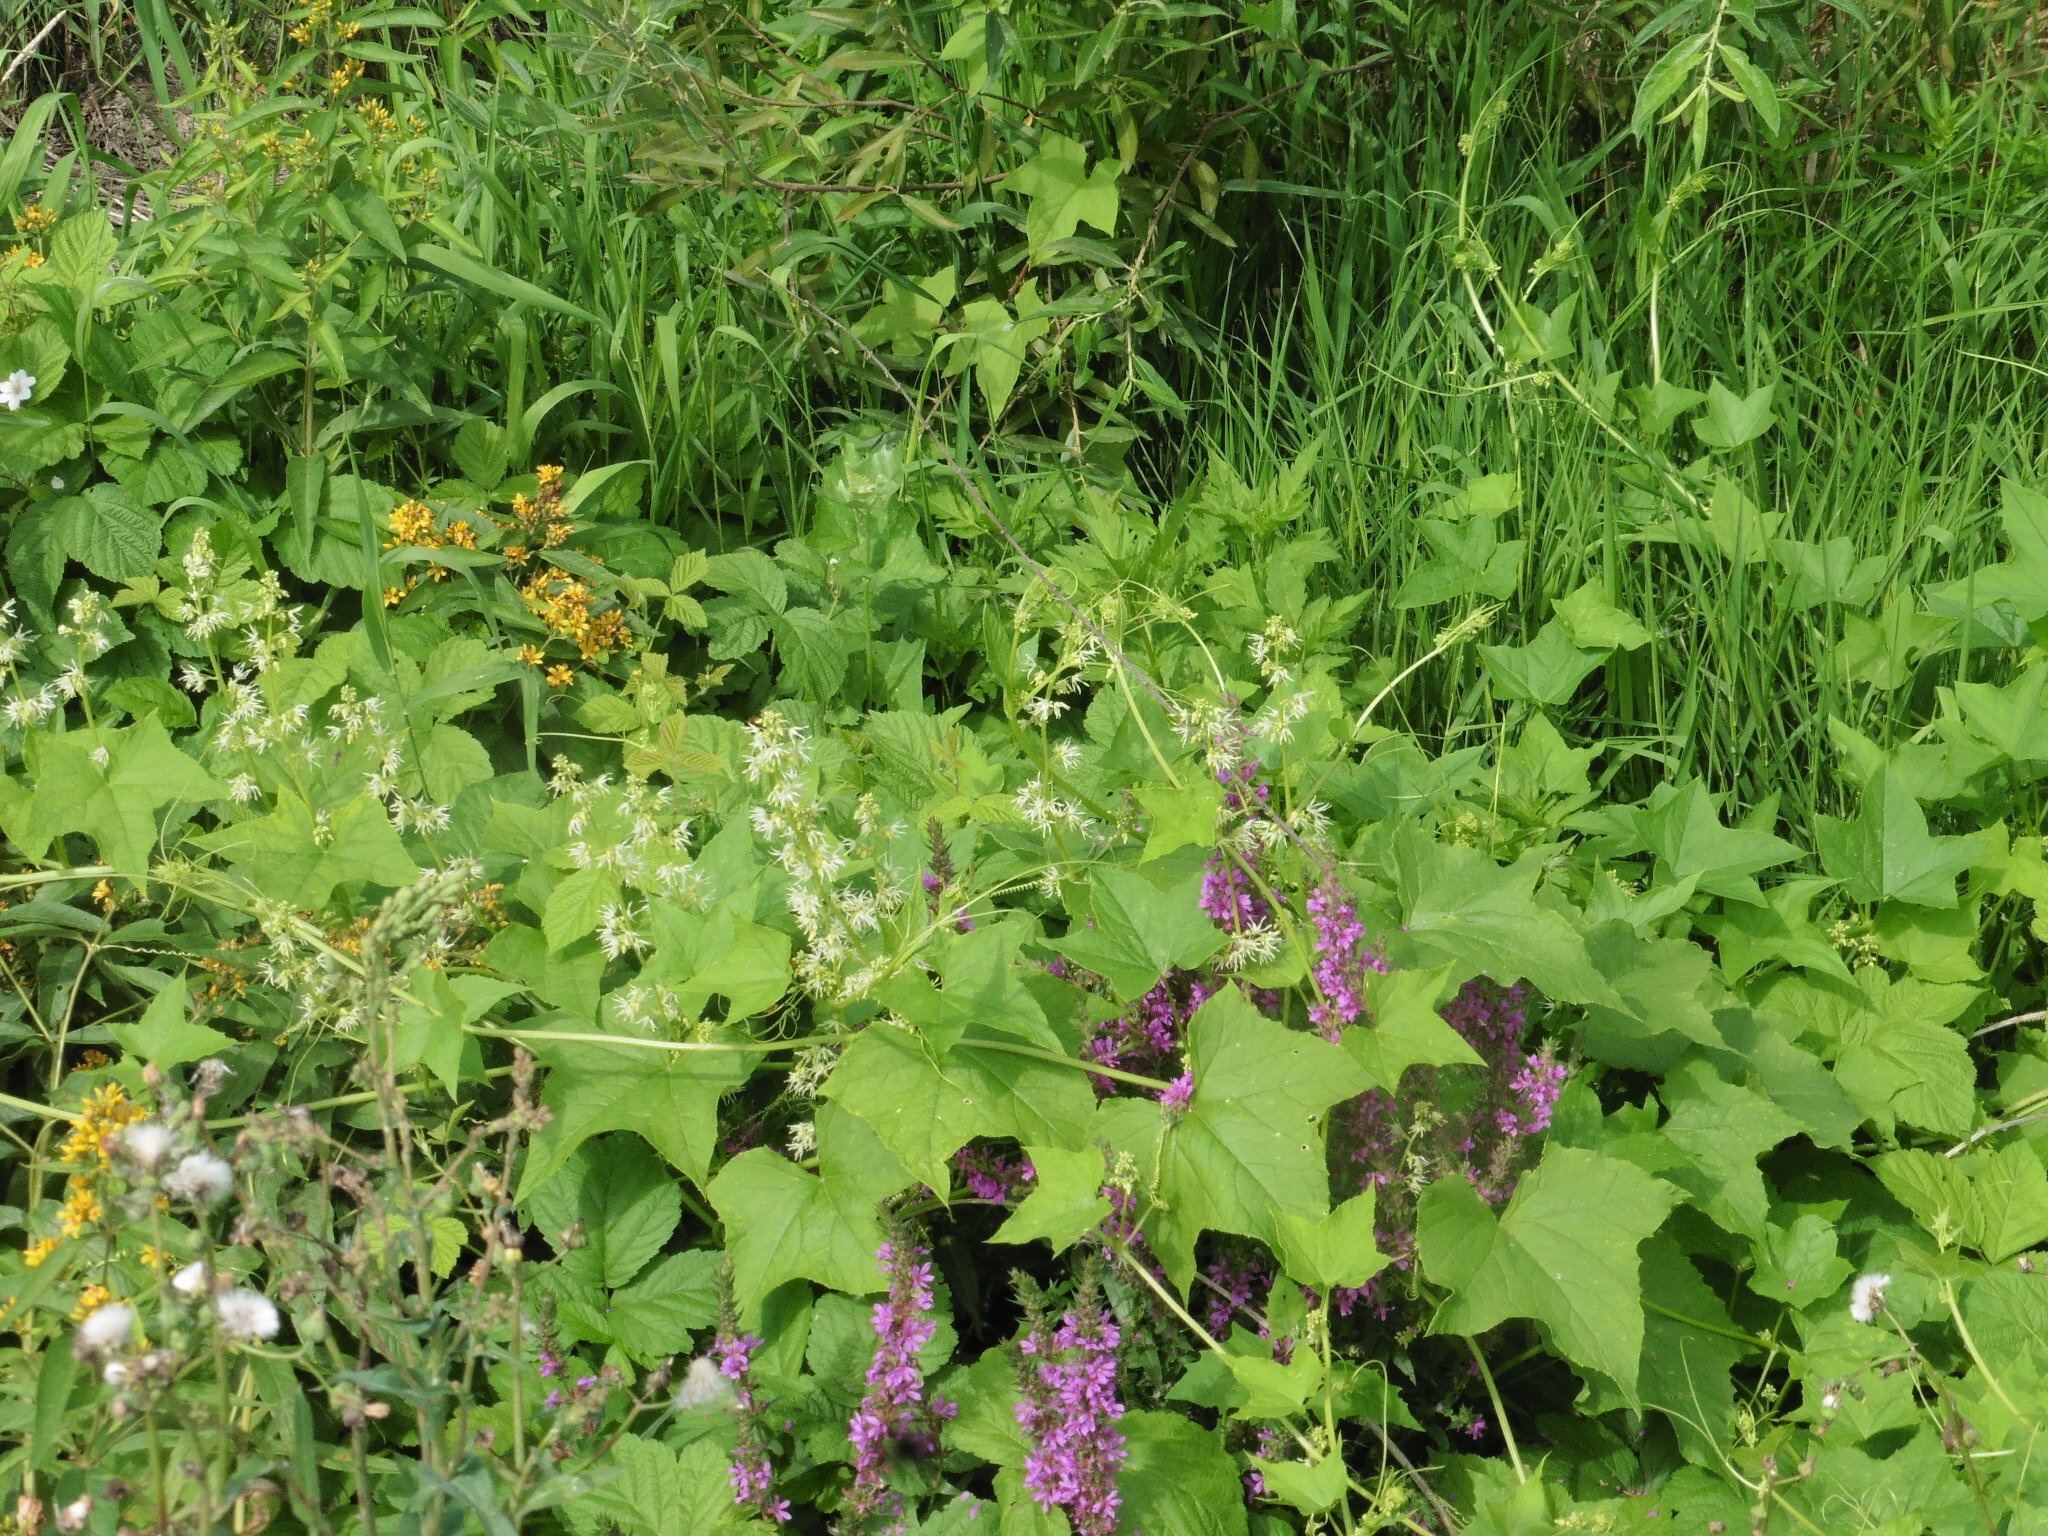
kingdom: Plantae
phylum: Tracheophyta
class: Magnoliopsida
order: Cucurbitales
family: Cucurbitaceae
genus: Echinocystis
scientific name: Echinocystis lobata
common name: Wild cucumber
